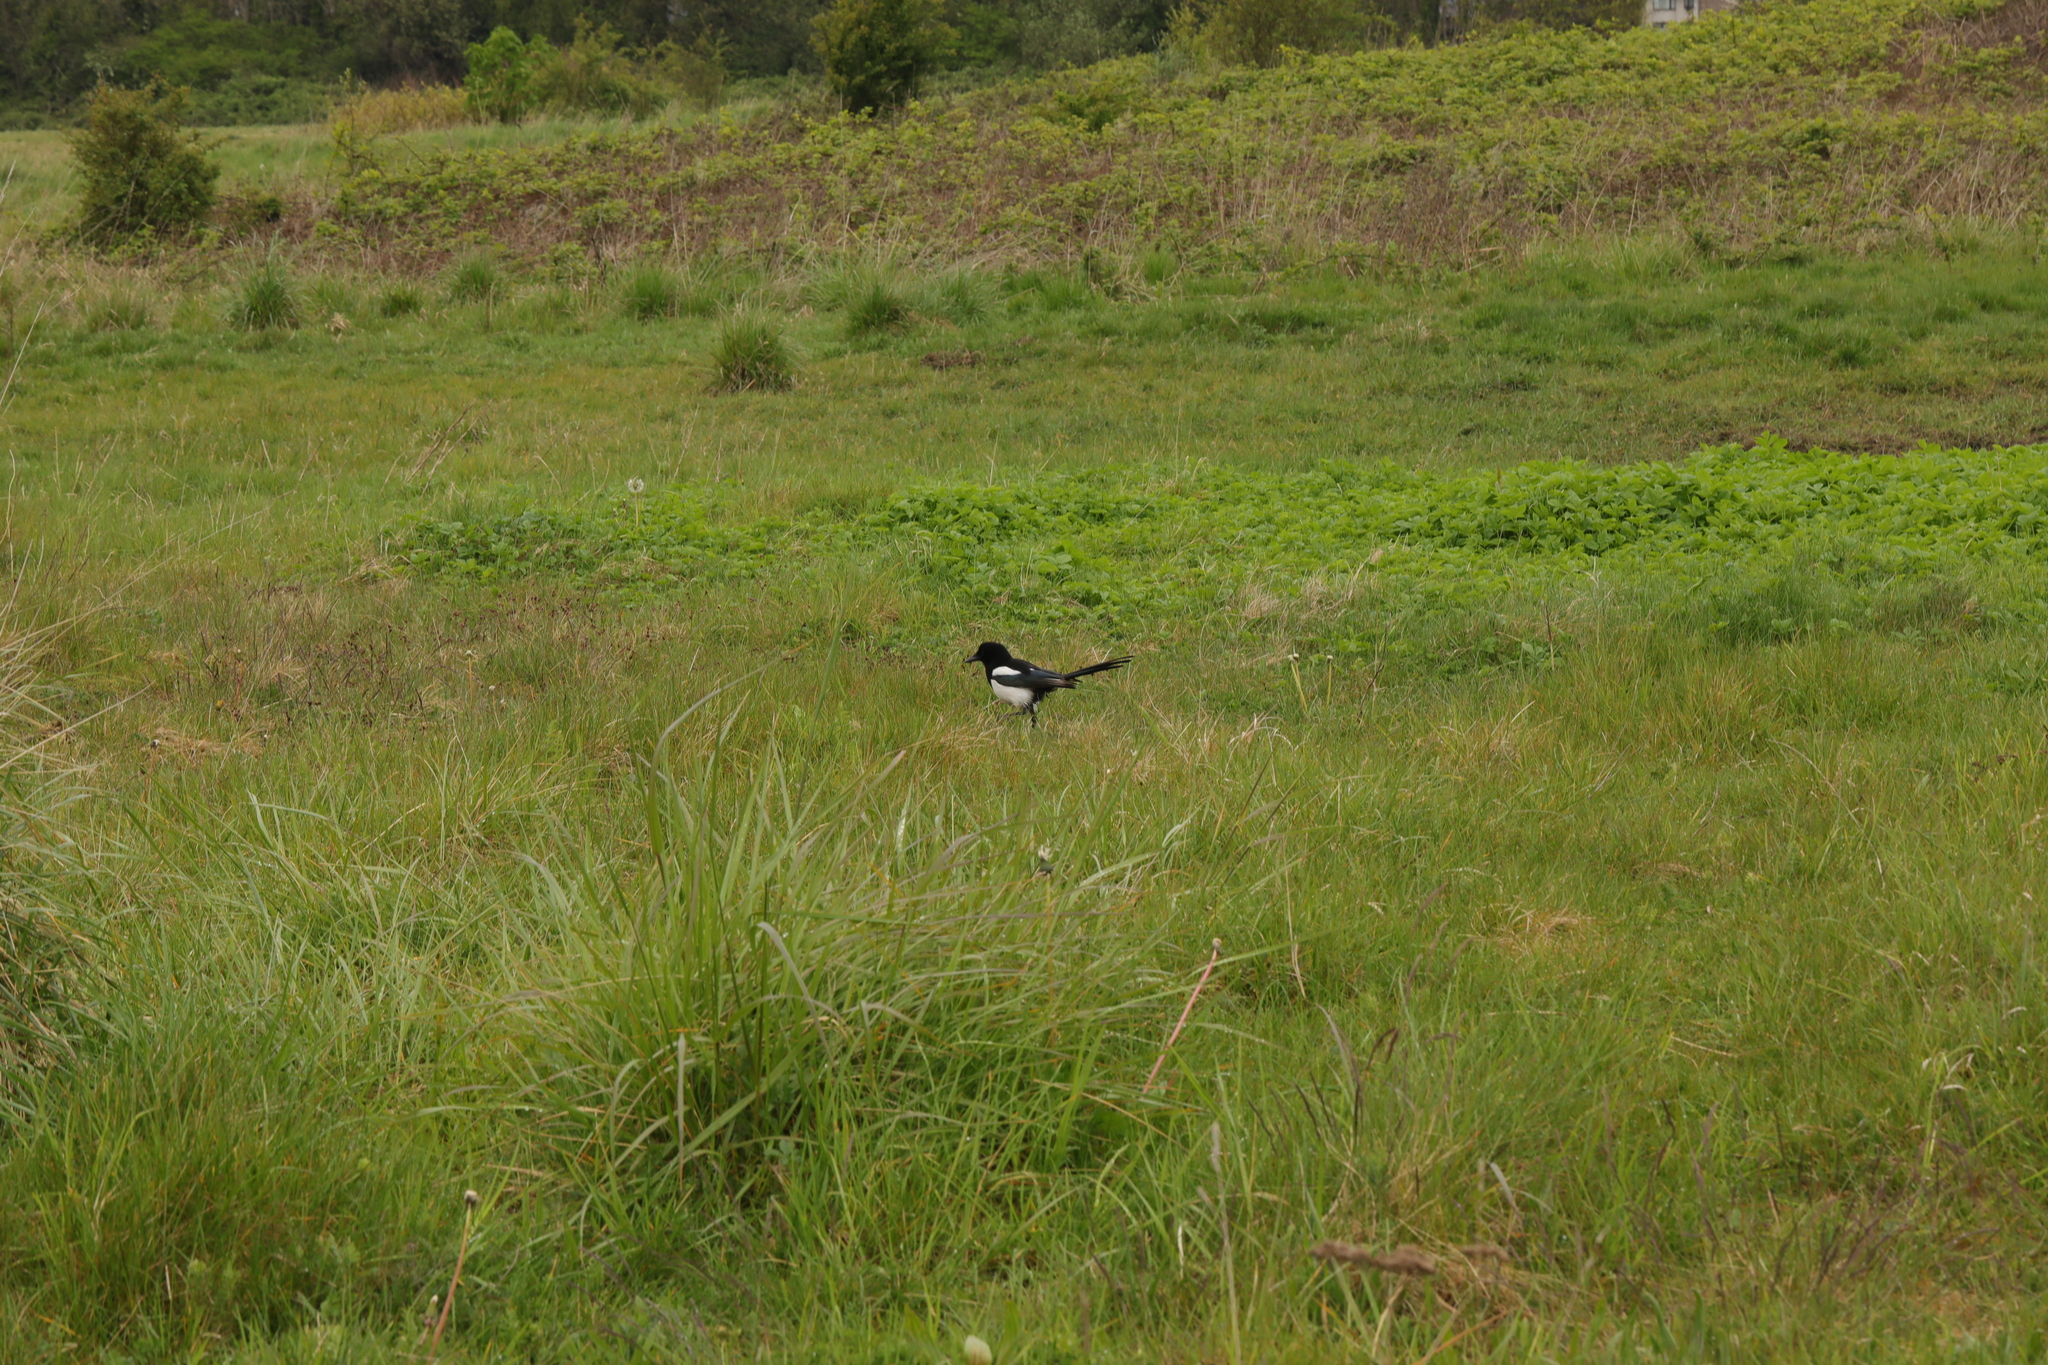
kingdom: Animalia
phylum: Chordata
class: Aves
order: Passeriformes
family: Corvidae
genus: Pica
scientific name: Pica pica
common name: Eurasian magpie
